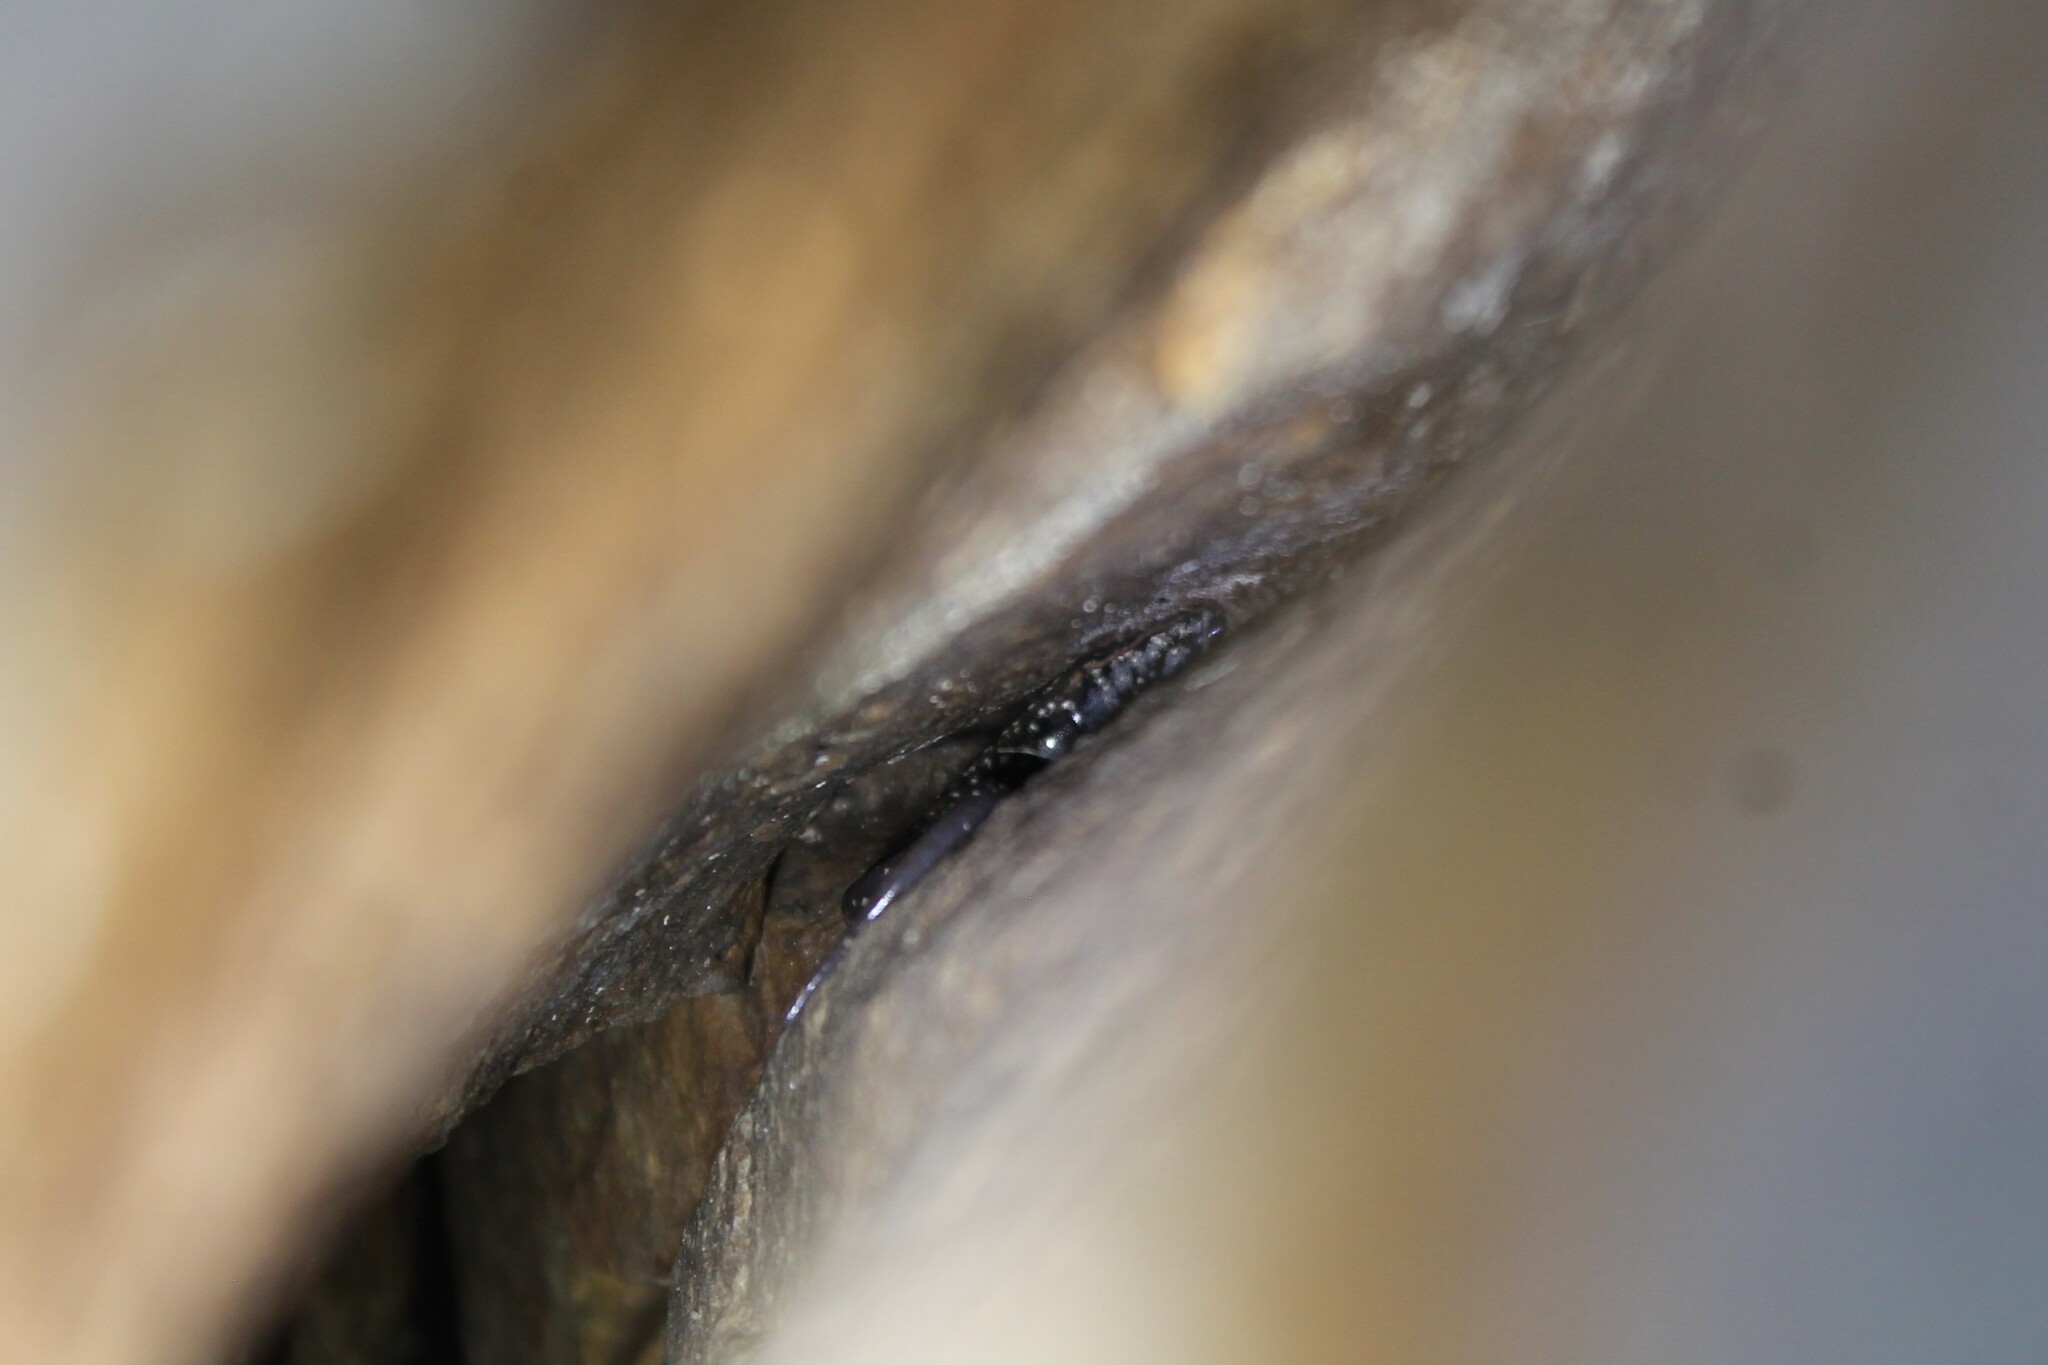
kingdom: Animalia
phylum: Chordata
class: Amphibia
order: Caudata
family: Plethodontidae
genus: Plethodon
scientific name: Plethodon petraeus
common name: Pigeon mountain salamander
